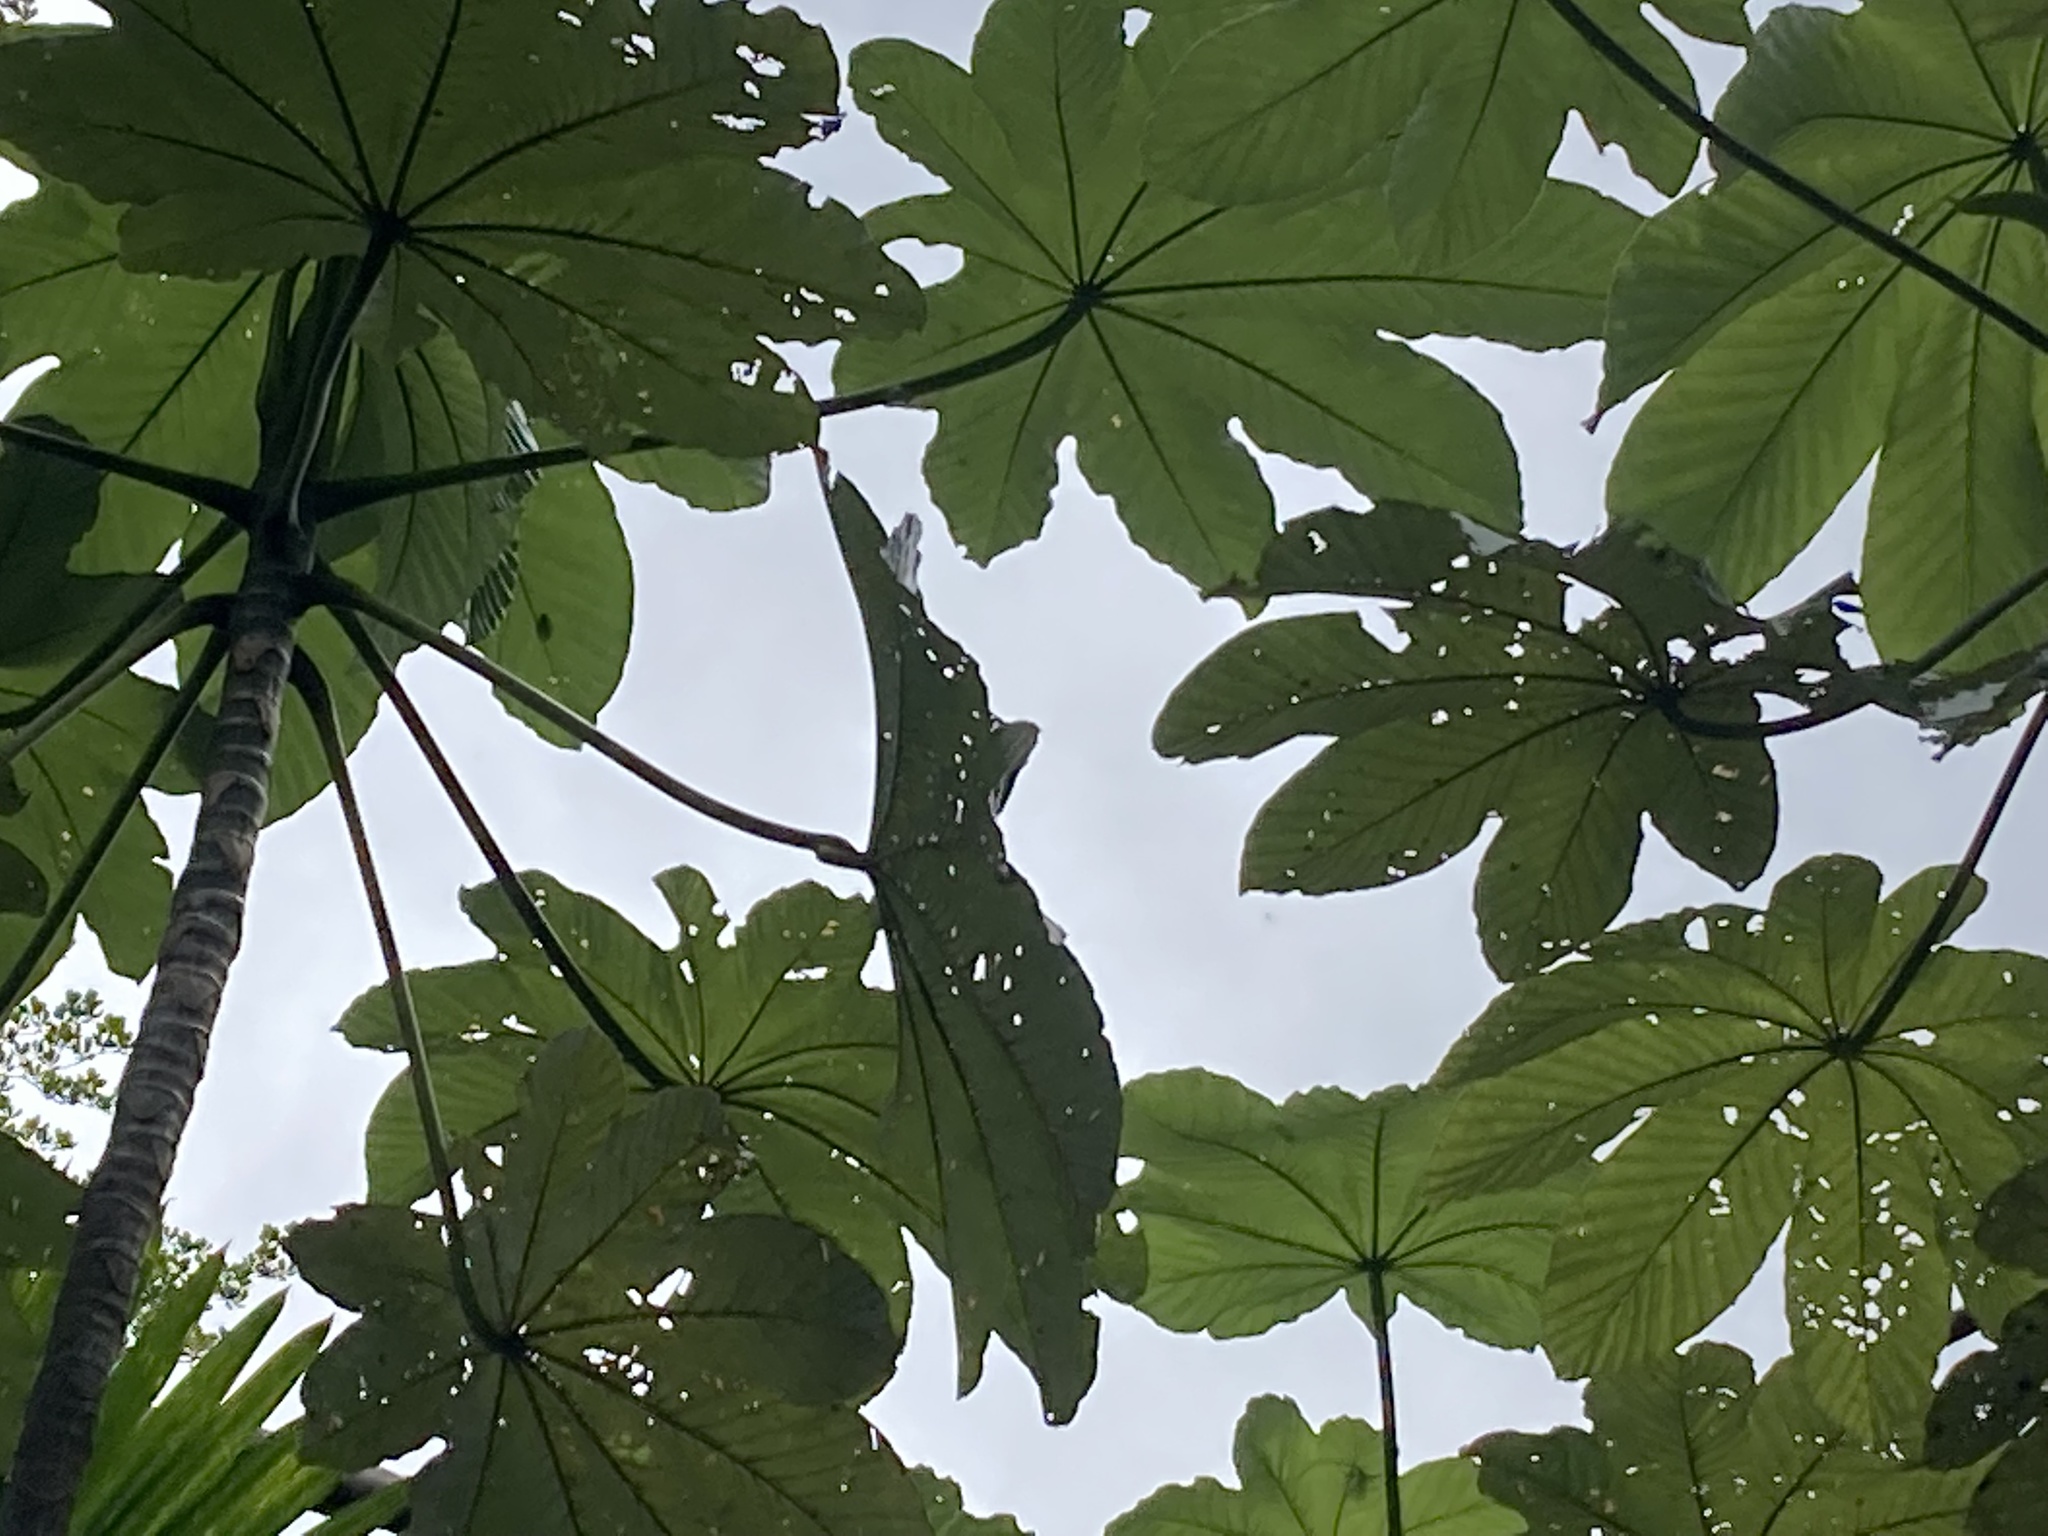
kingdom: Plantae
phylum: Tracheophyta
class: Magnoliopsida
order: Rosales
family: Urticaceae
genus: Cecropia
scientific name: Cecropia schreberiana
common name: Trumpet tree
